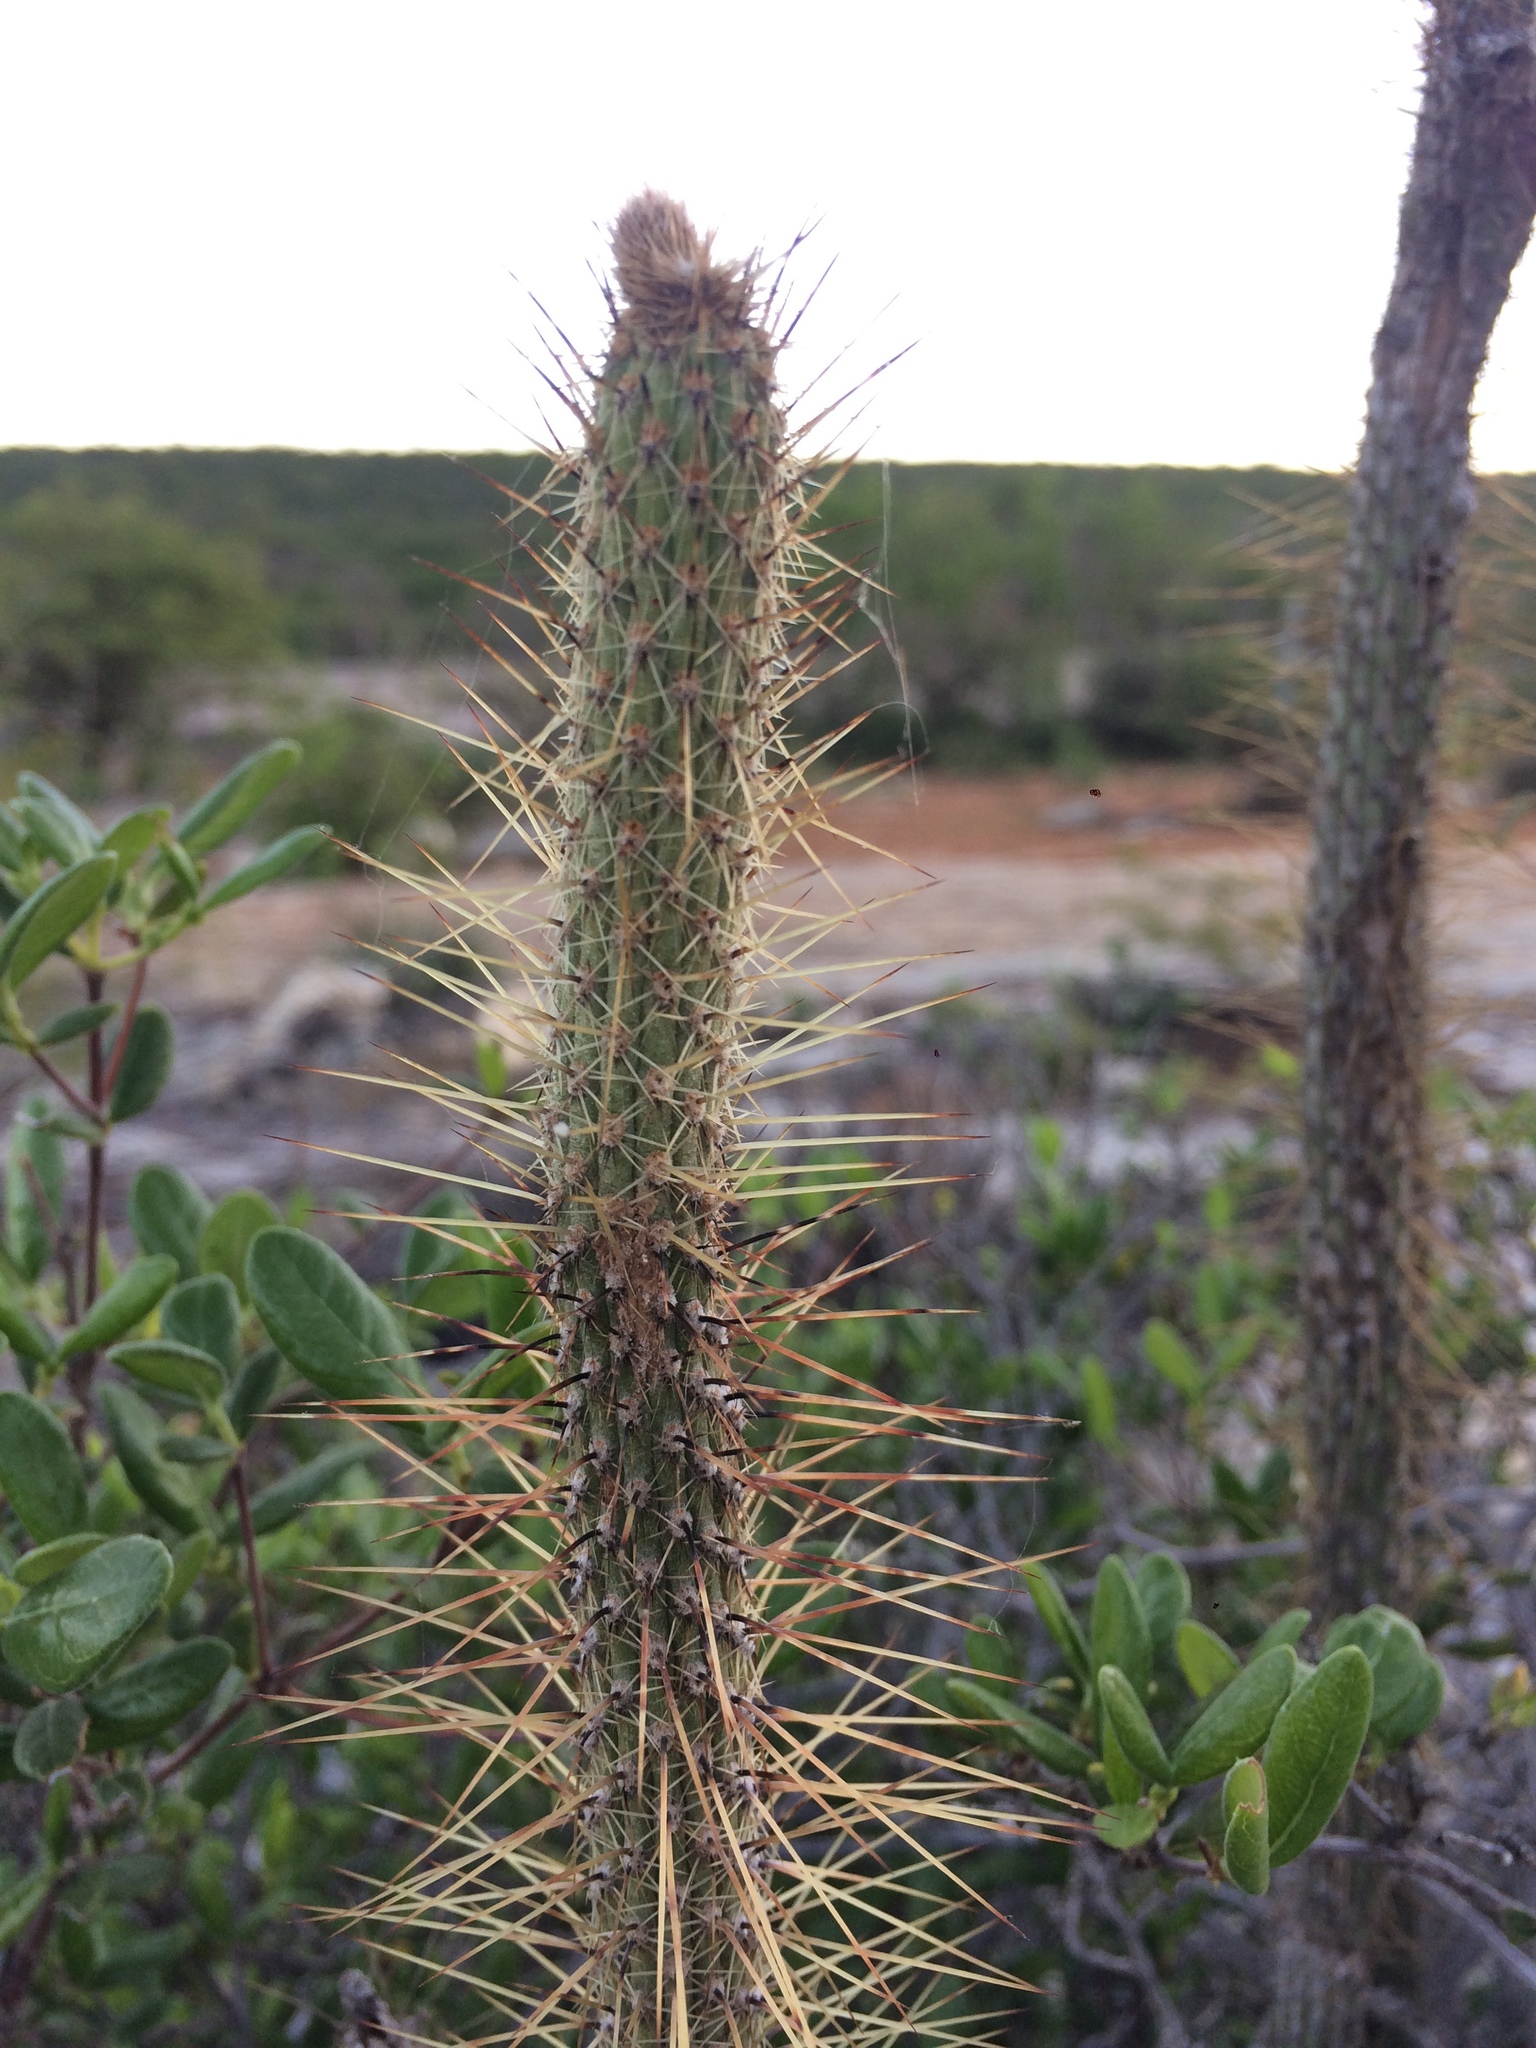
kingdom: Plantae
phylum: Tracheophyta
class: Magnoliopsida
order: Caryophyllales
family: Cactaceae
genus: Leocereus
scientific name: Leocereus bahiensis
